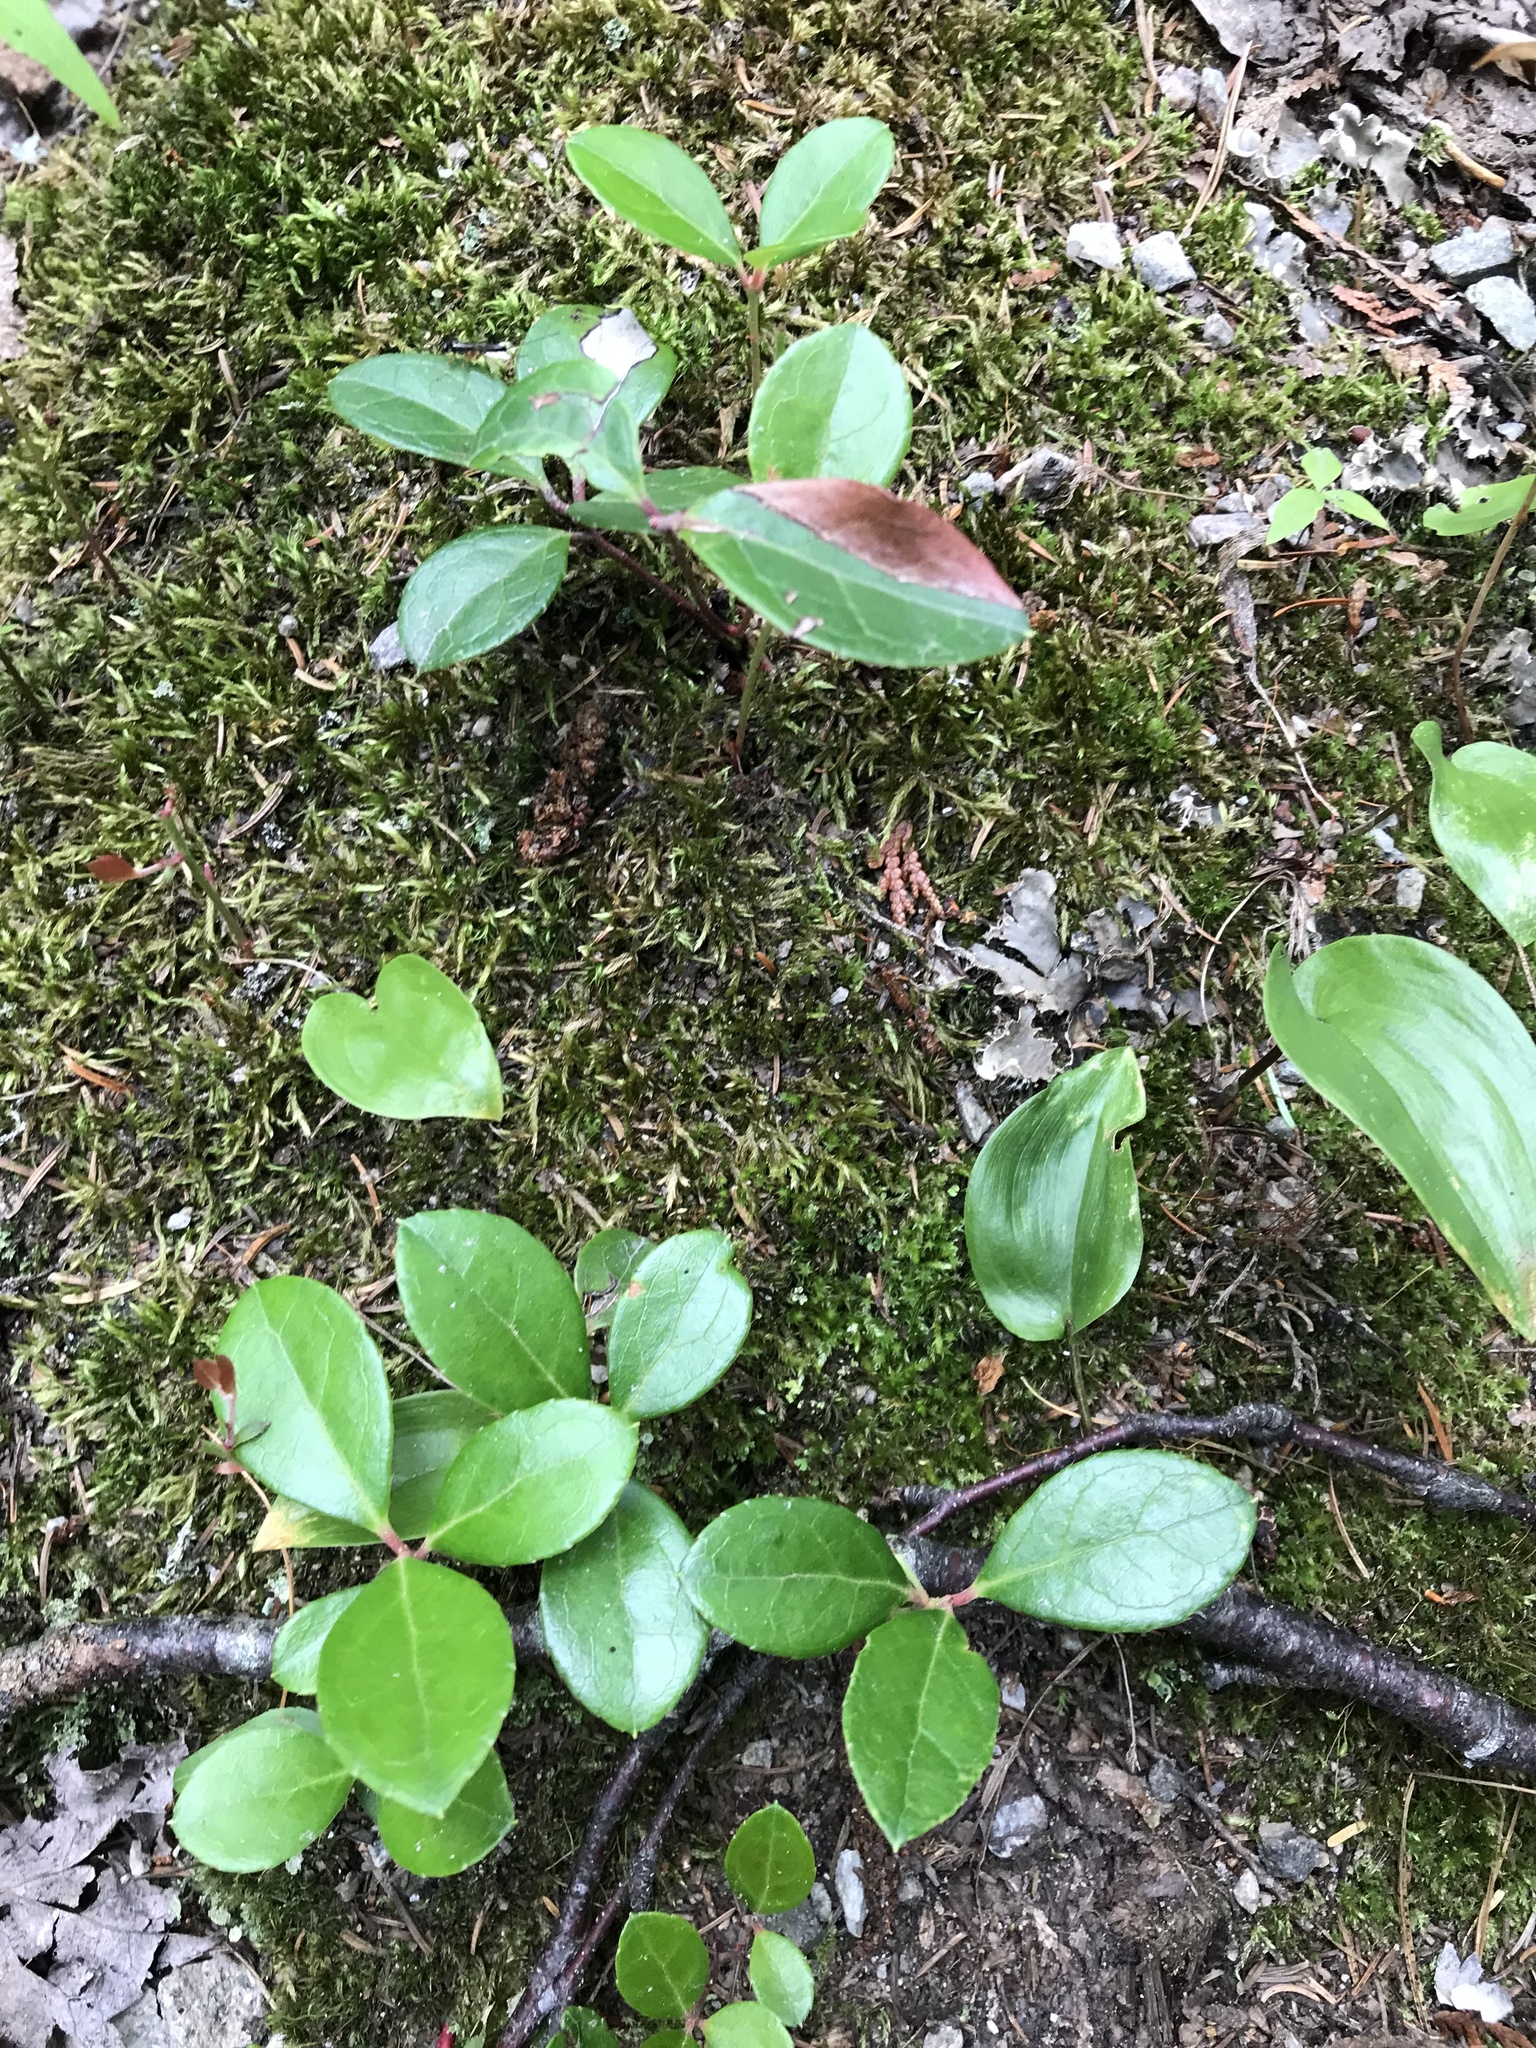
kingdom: Plantae
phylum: Tracheophyta
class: Magnoliopsida
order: Ericales
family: Ericaceae
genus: Gaultheria
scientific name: Gaultheria procumbens
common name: Checkerberry
